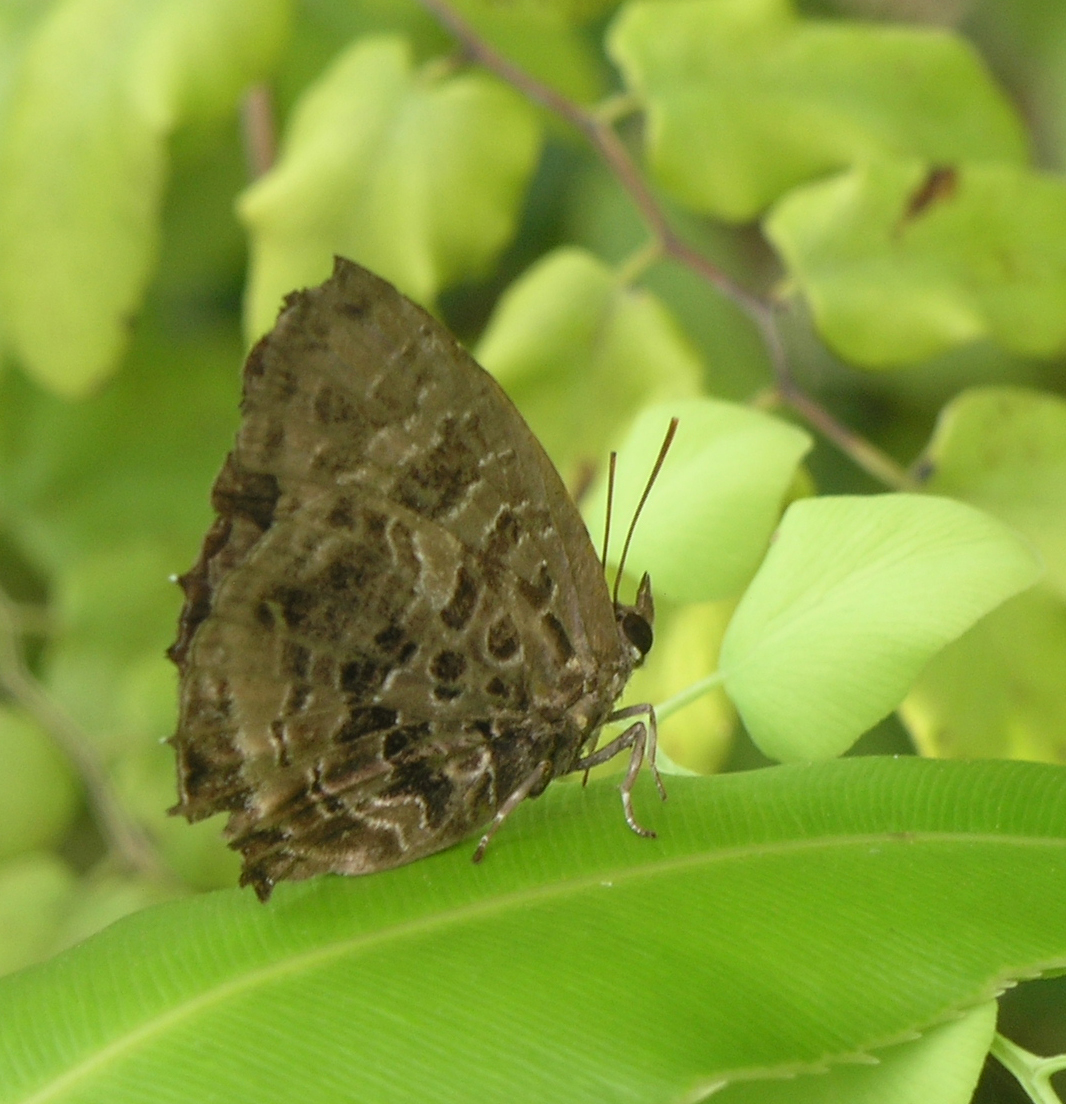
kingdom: Animalia
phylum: Arthropoda
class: Insecta
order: Lepidoptera
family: Lycaenidae
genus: Arhopala
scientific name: Arhopala abseus
